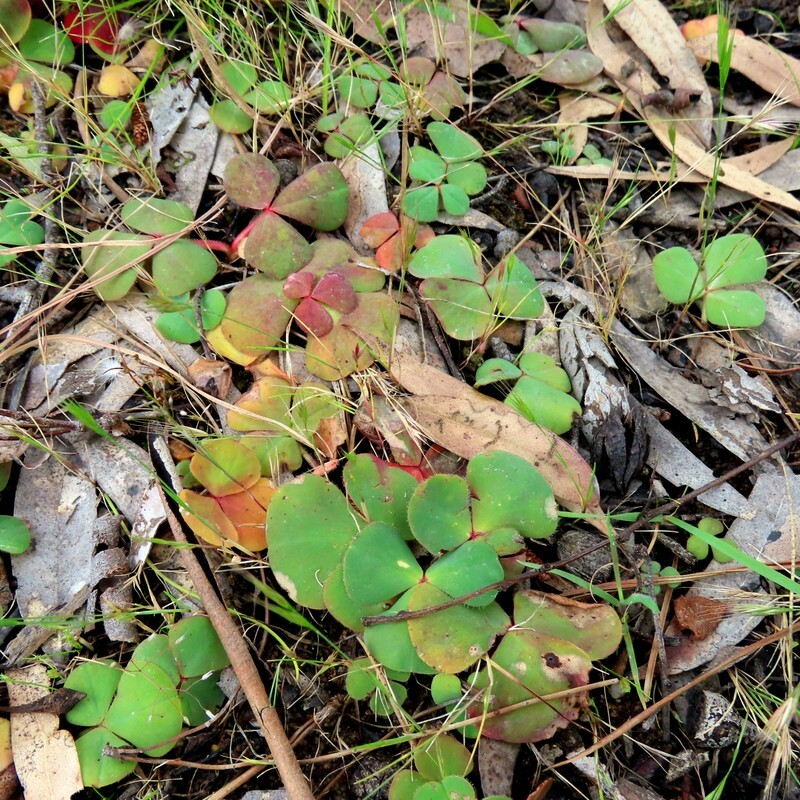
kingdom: Plantae
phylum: Tracheophyta
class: Magnoliopsida
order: Oxalidales
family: Oxalidaceae
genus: Oxalis
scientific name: Oxalis purpurea
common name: Purple woodsorrel
